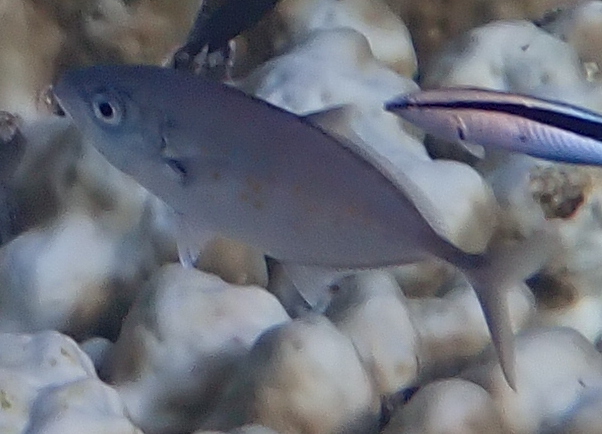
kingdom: Animalia
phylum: Chordata
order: Perciformes
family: Carangidae
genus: Flavocaranx
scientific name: Flavocaranx bajad
